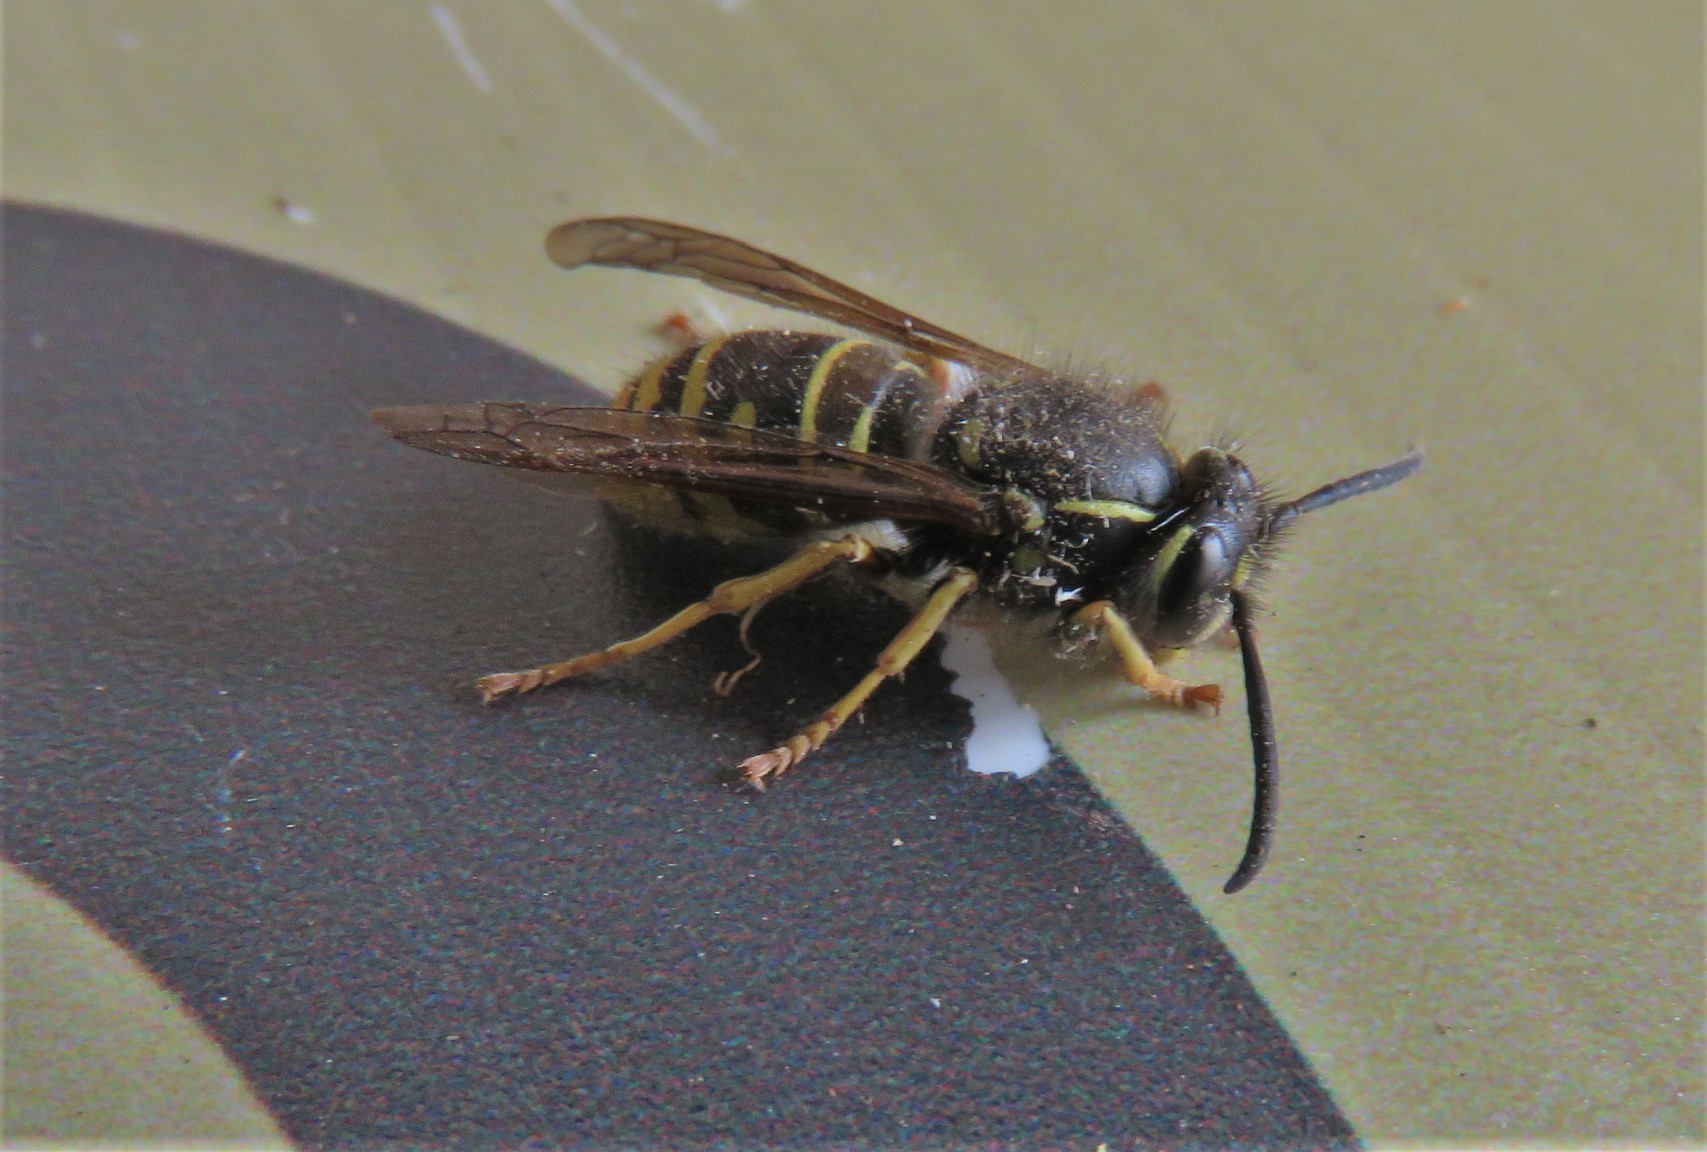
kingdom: Animalia
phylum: Arthropoda
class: Insecta
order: Hymenoptera
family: Vespidae
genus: Vespula
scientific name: Vespula acadica
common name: Forest yellowjacket
